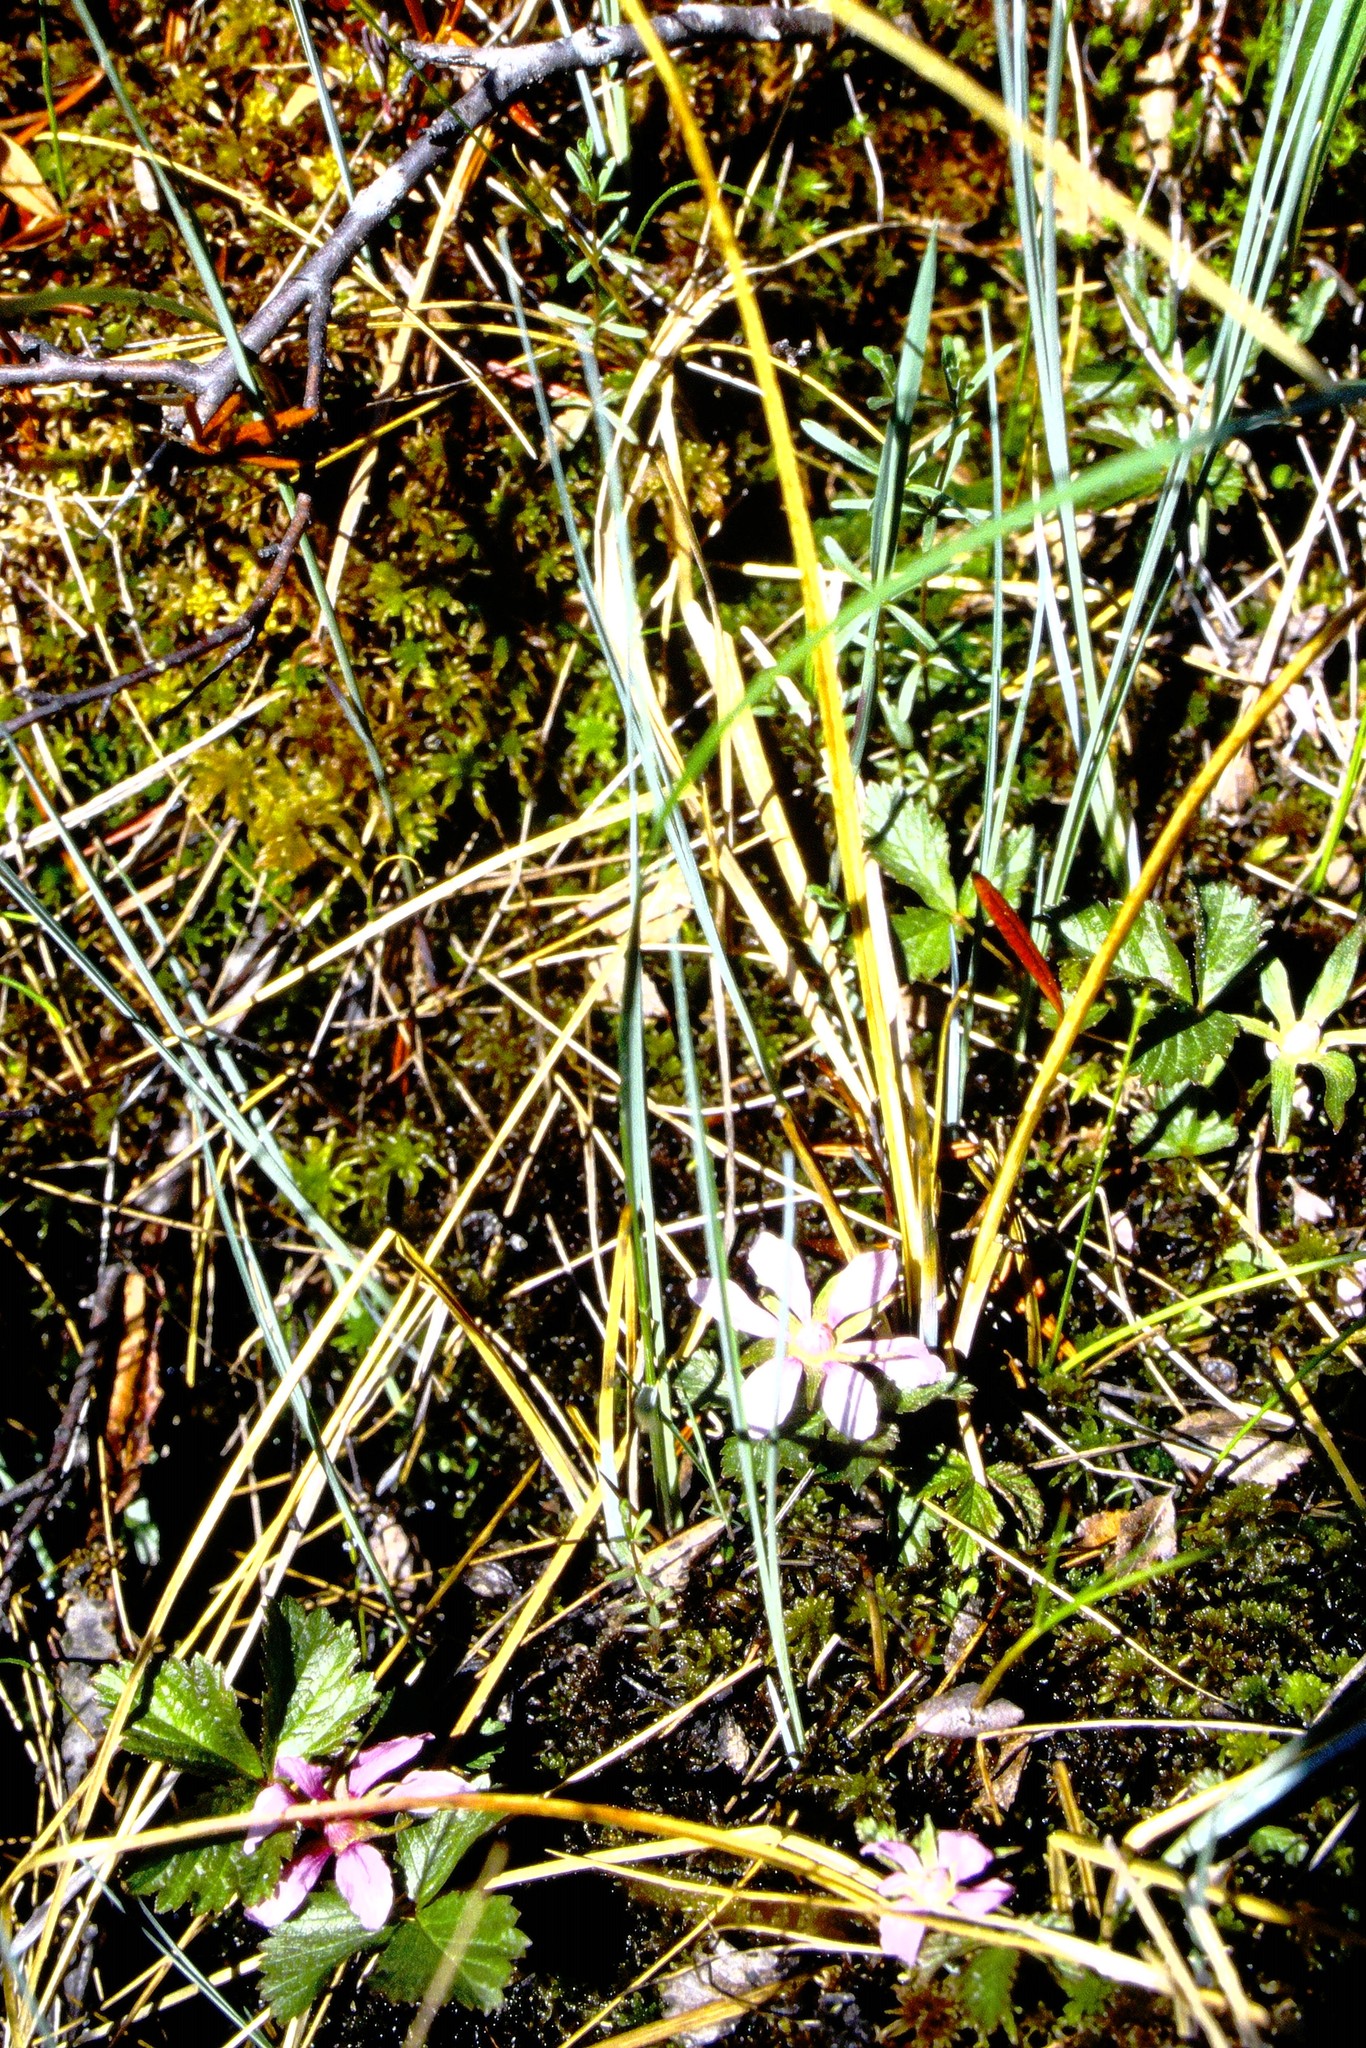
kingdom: Plantae
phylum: Tracheophyta
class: Magnoliopsida
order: Rosales
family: Rosaceae
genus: Rubus
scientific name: Rubus arcticus
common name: Arctic bramble
